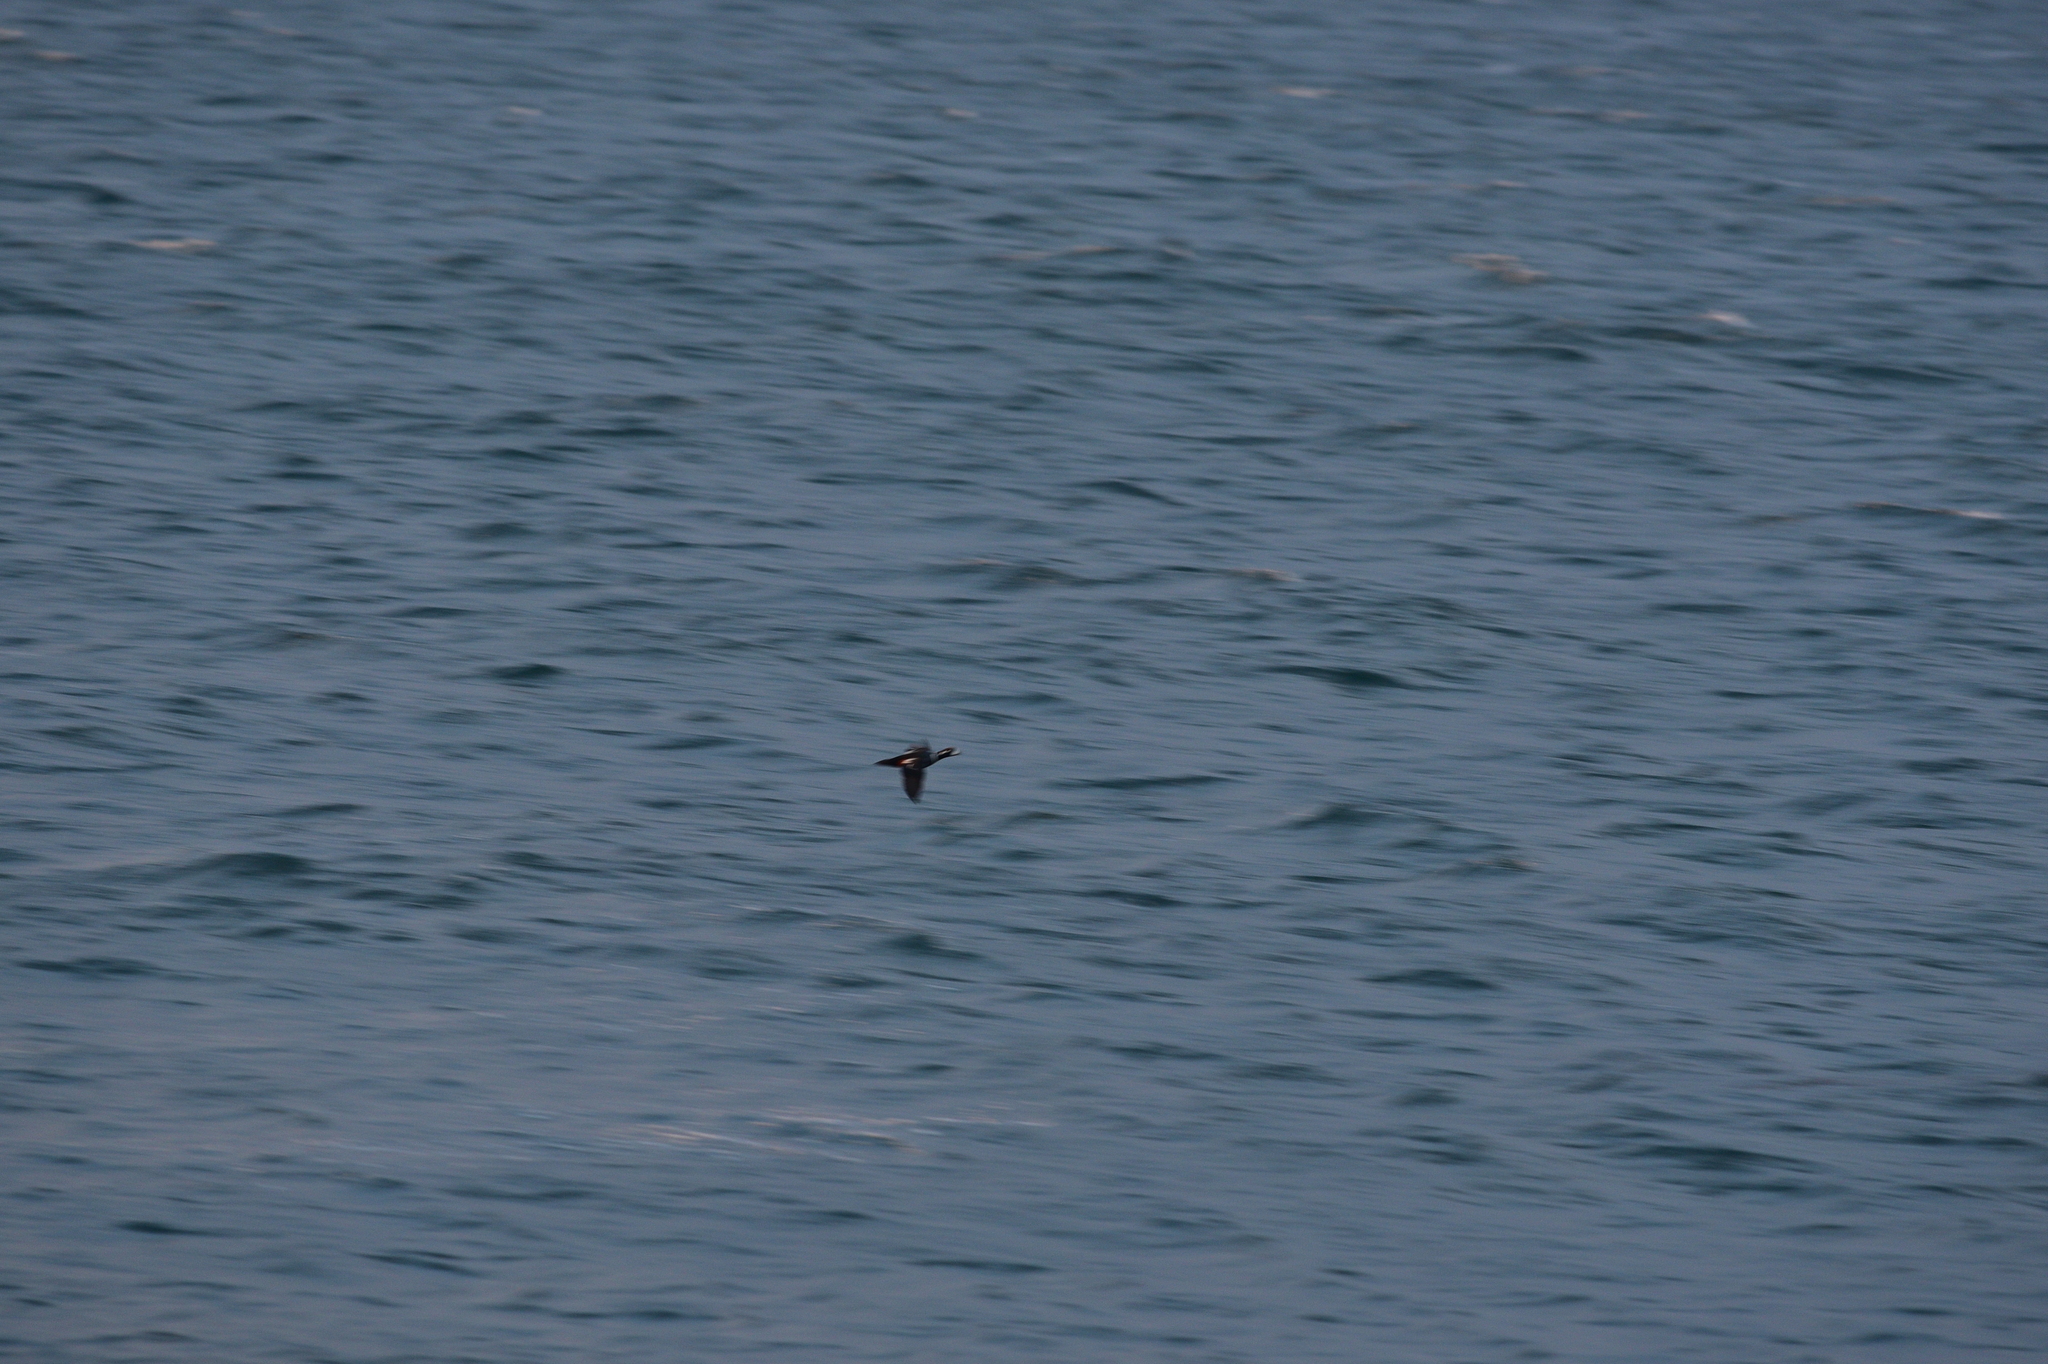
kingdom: Animalia
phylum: Chordata
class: Aves
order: Anseriformes
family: Anatidae
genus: Histrionicus
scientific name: Histrionicus histrionicus
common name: Harlequin duck
